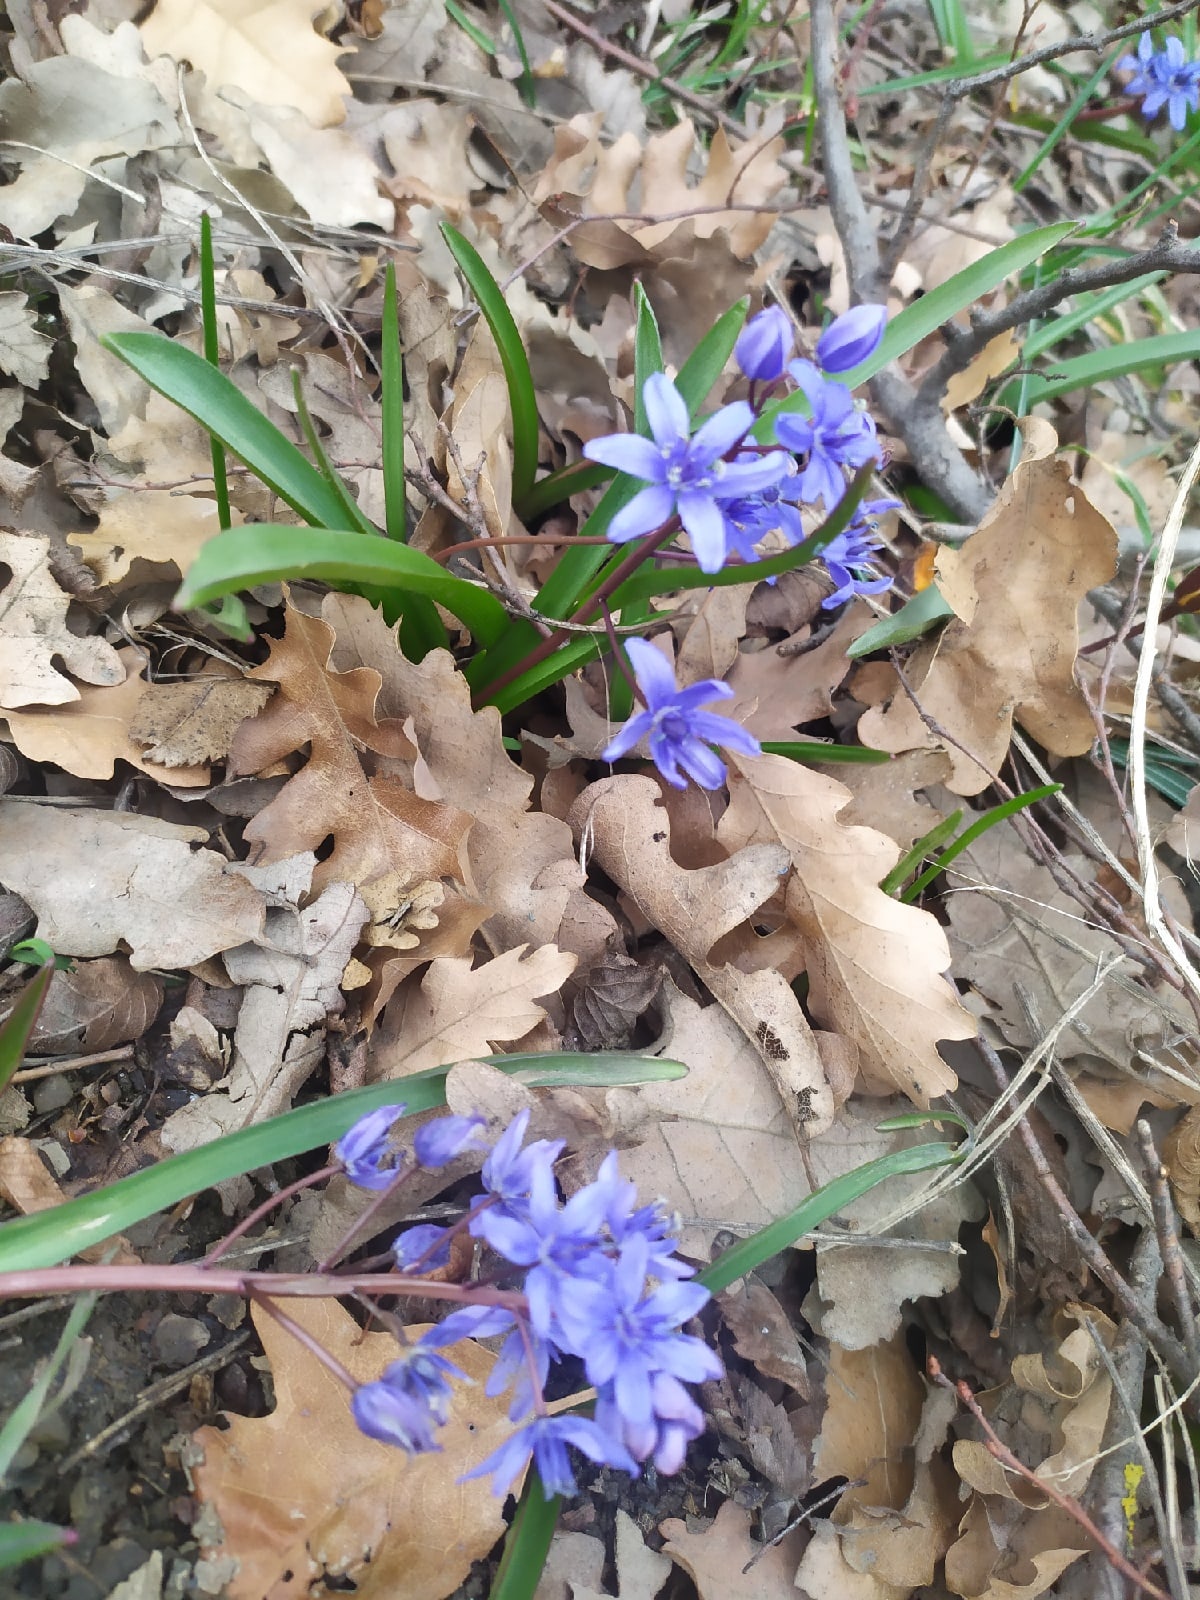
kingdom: Plantae
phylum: Tracheophyta
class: Liliopsida
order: Asparagales
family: Asparagaceae
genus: Scilla
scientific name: Scilla bifolia
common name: Alpine squill
